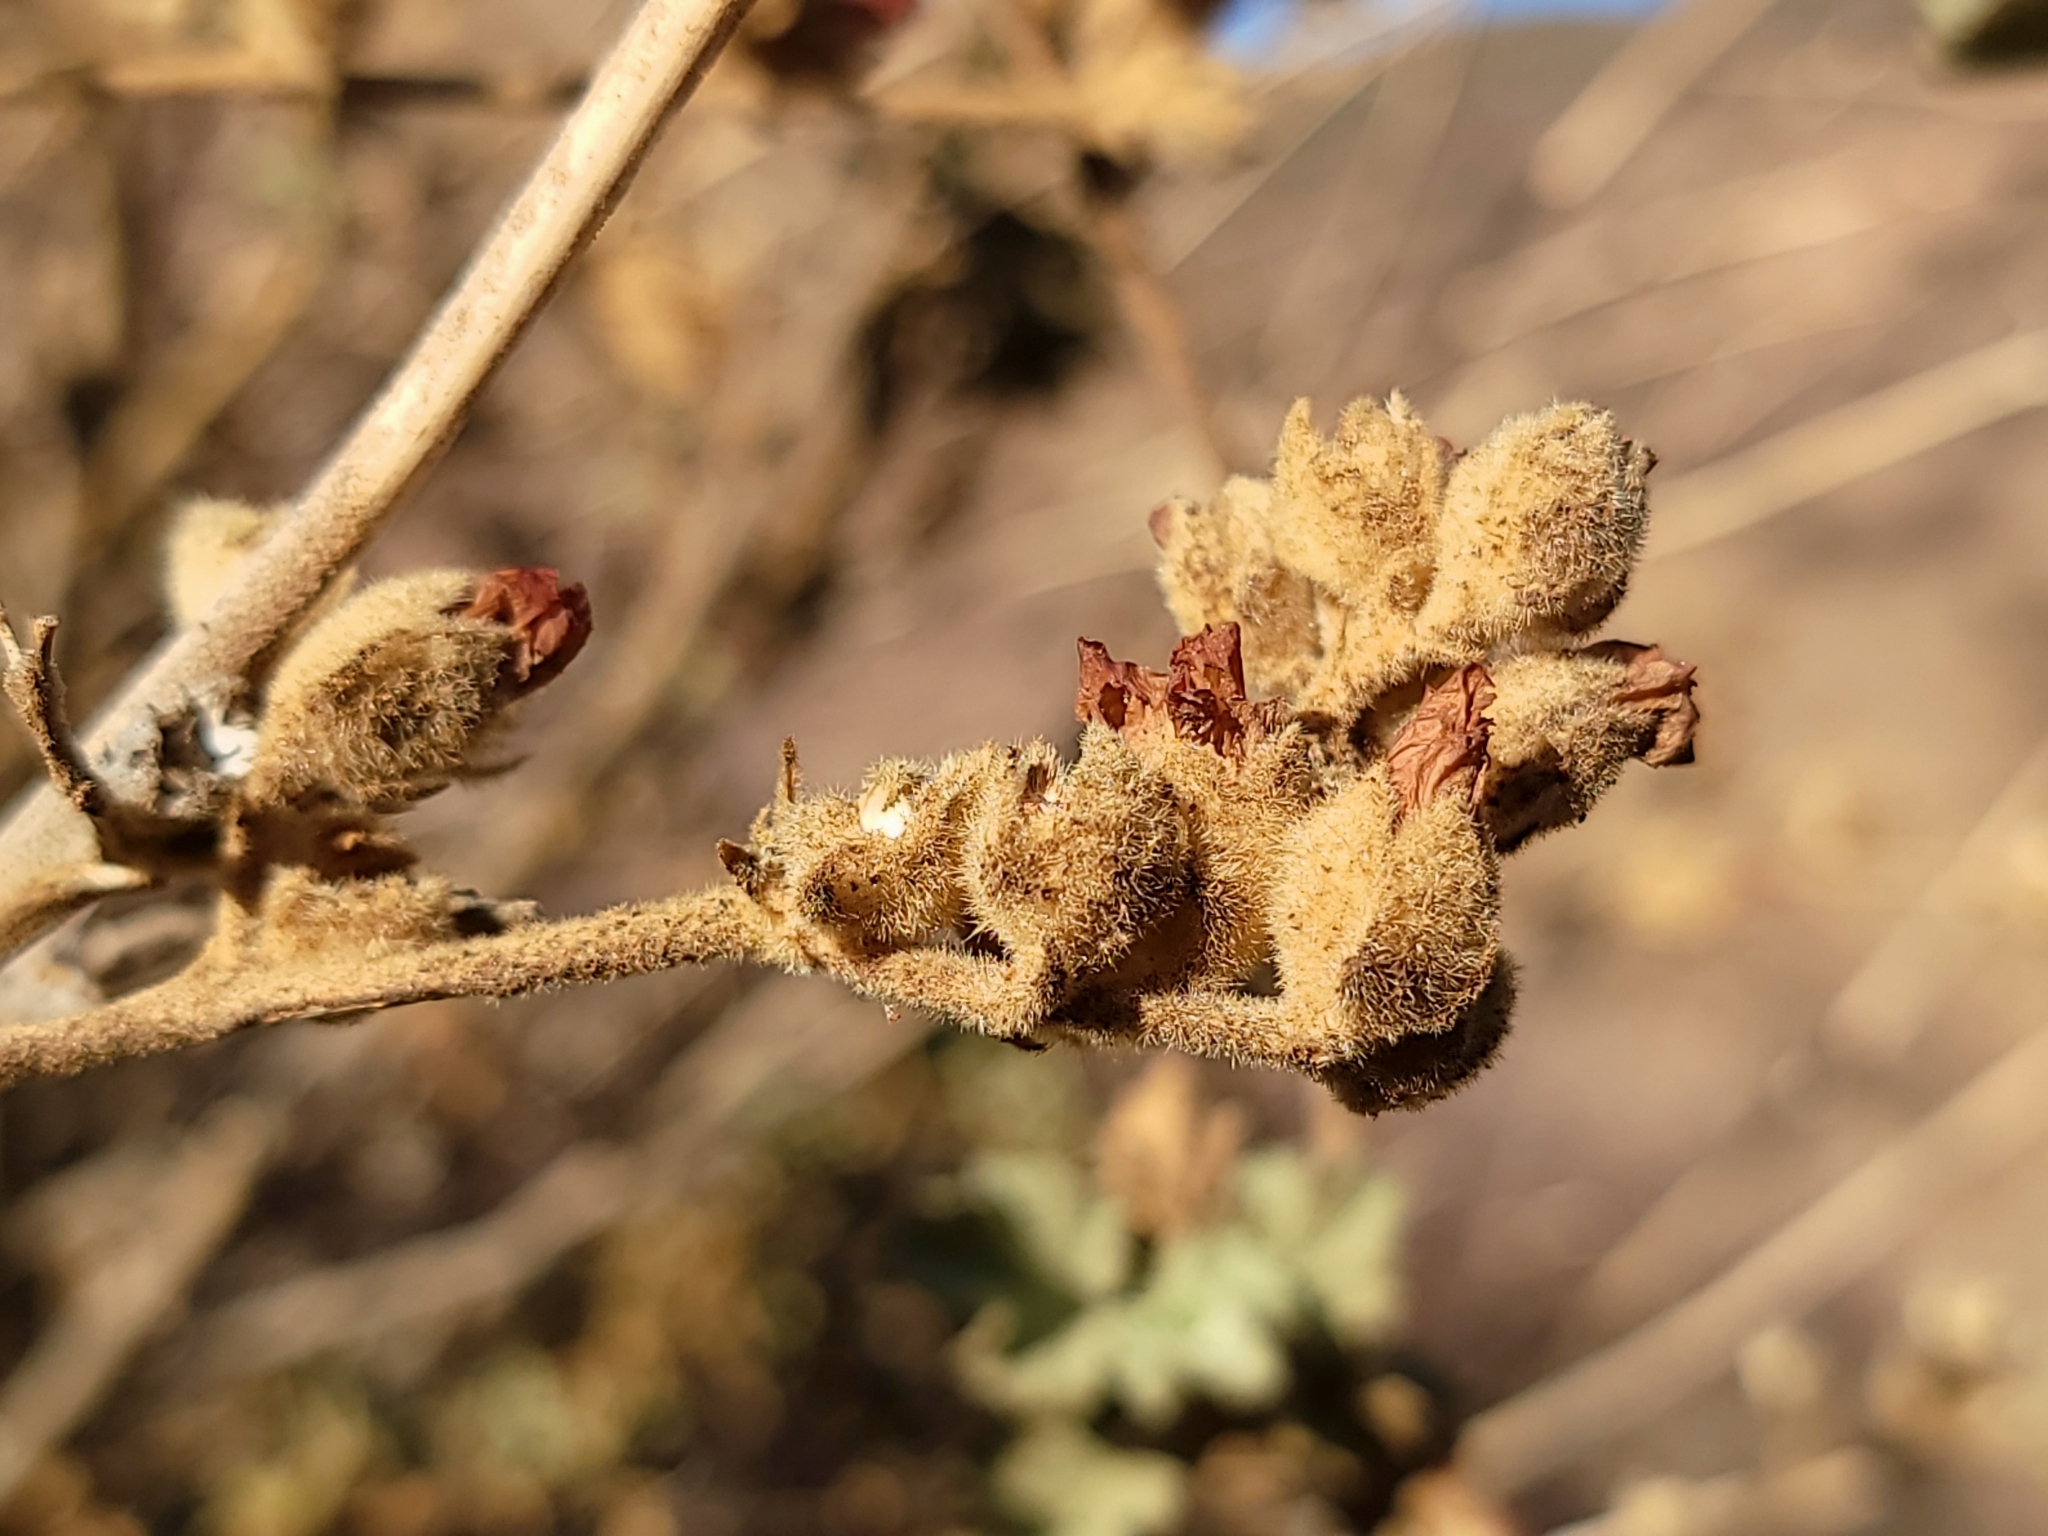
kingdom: Plantae
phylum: Tracheophyta
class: Magnoliopsida
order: Malvales
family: Malvaceae
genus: Malacothamnus
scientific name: Malacothamnus fremontii
